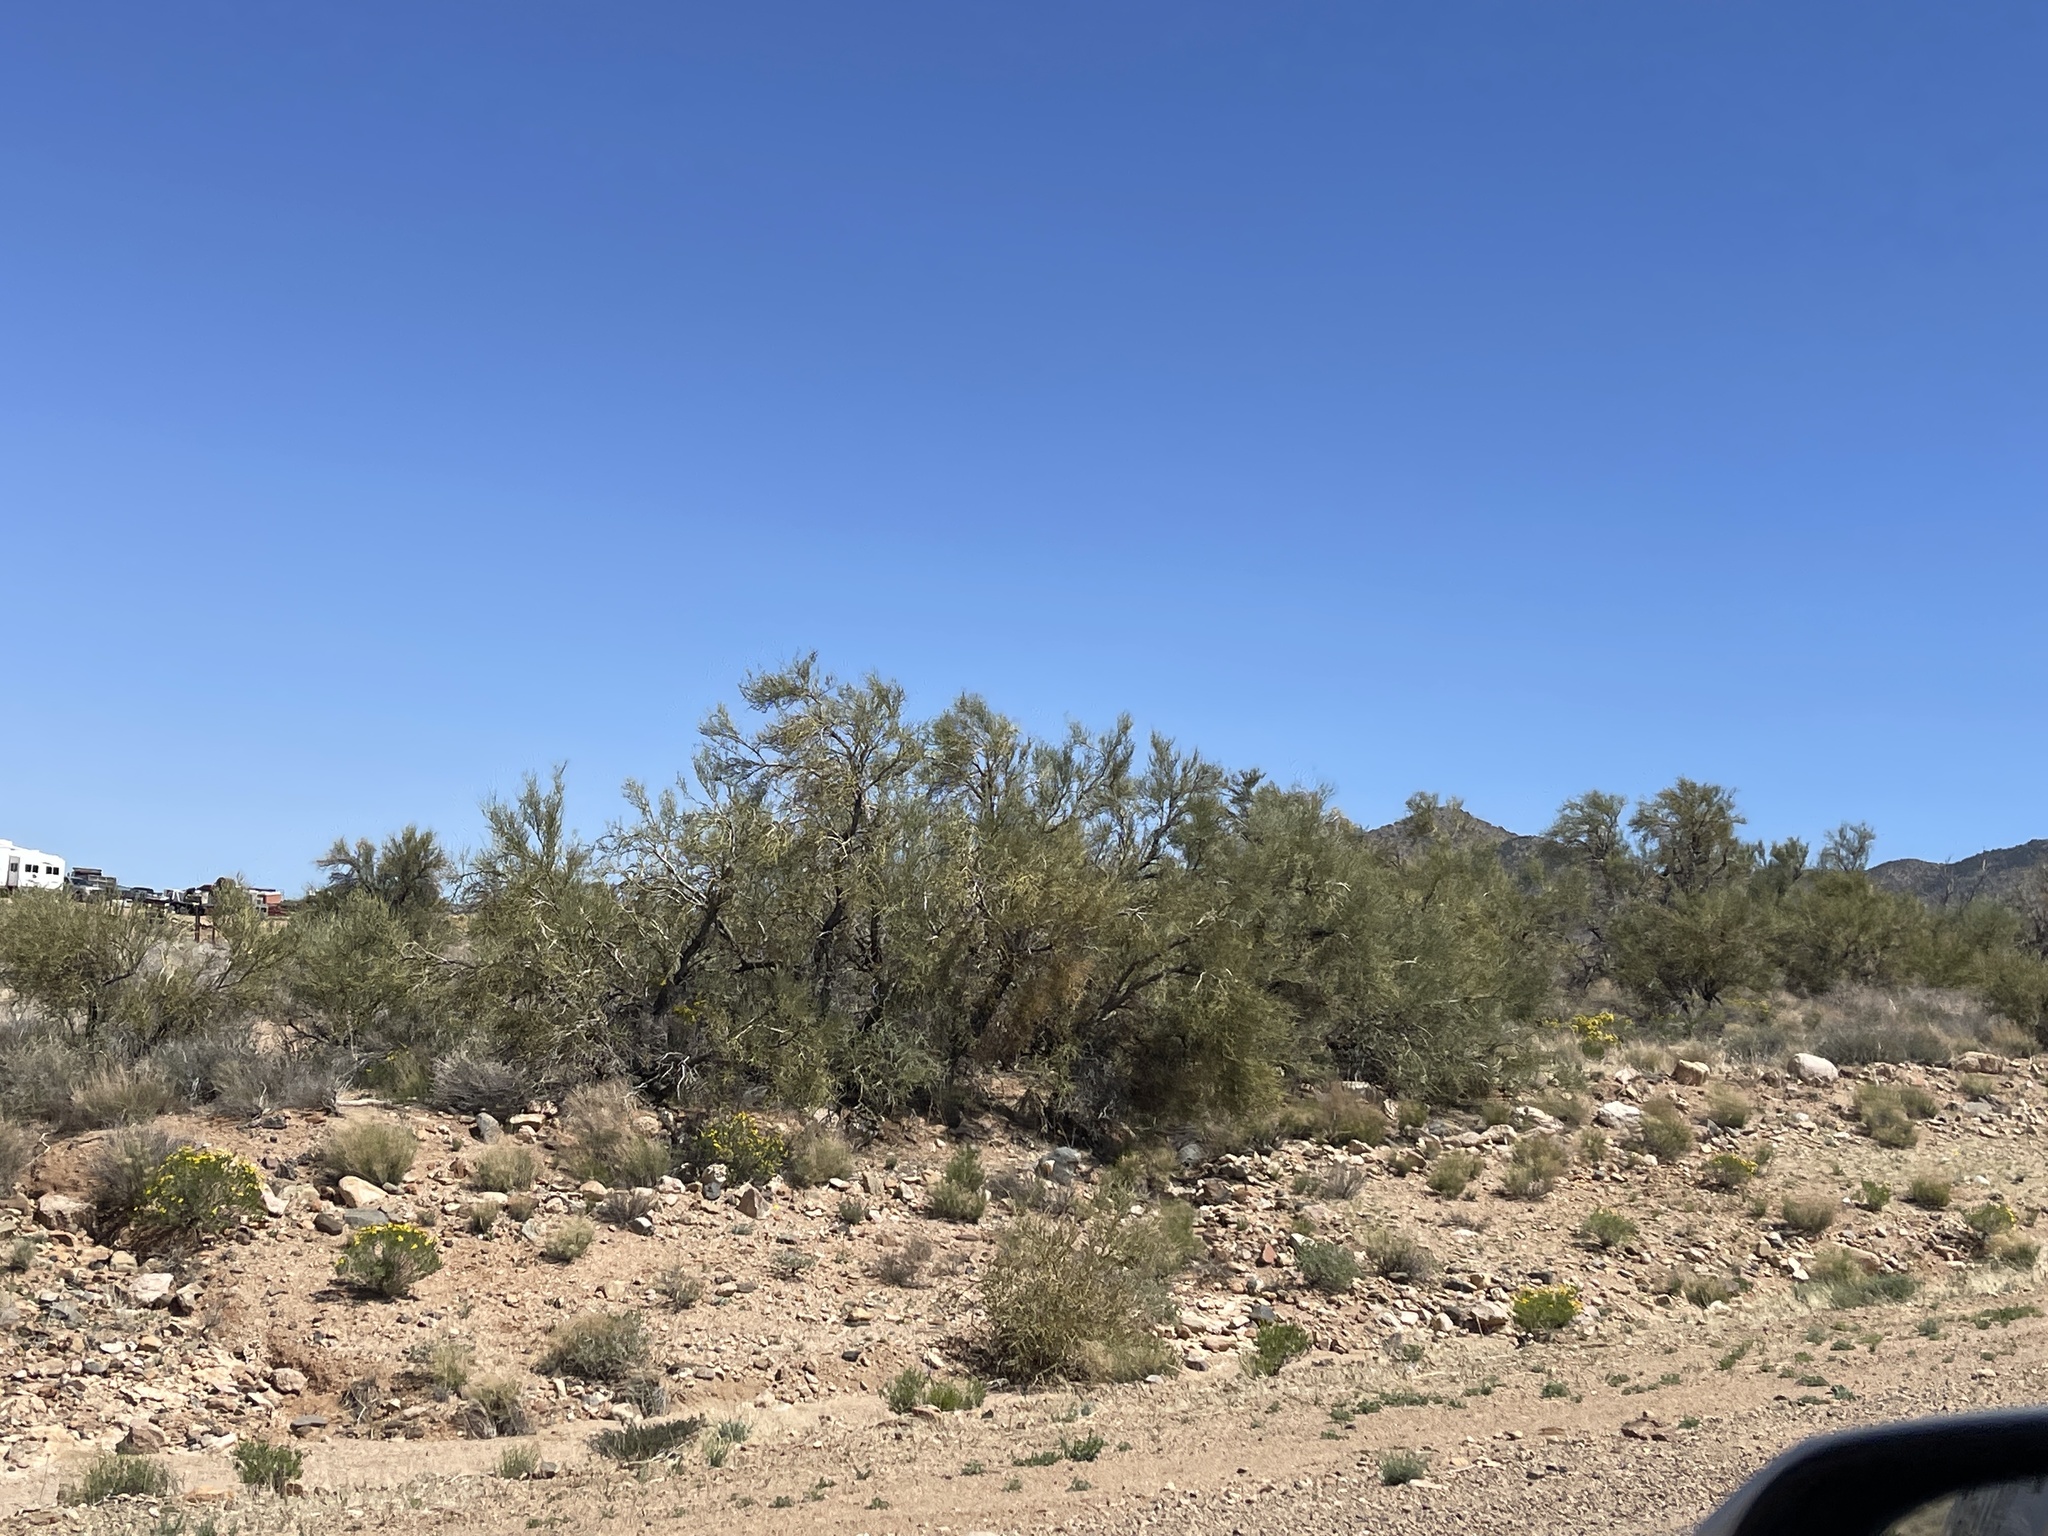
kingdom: Plantae
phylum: Tracheophyta
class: Magnoliopsida
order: Celastrales
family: Celastraceae
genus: Canotia
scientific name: Canotia holacantha
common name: Crucifixion thorns
